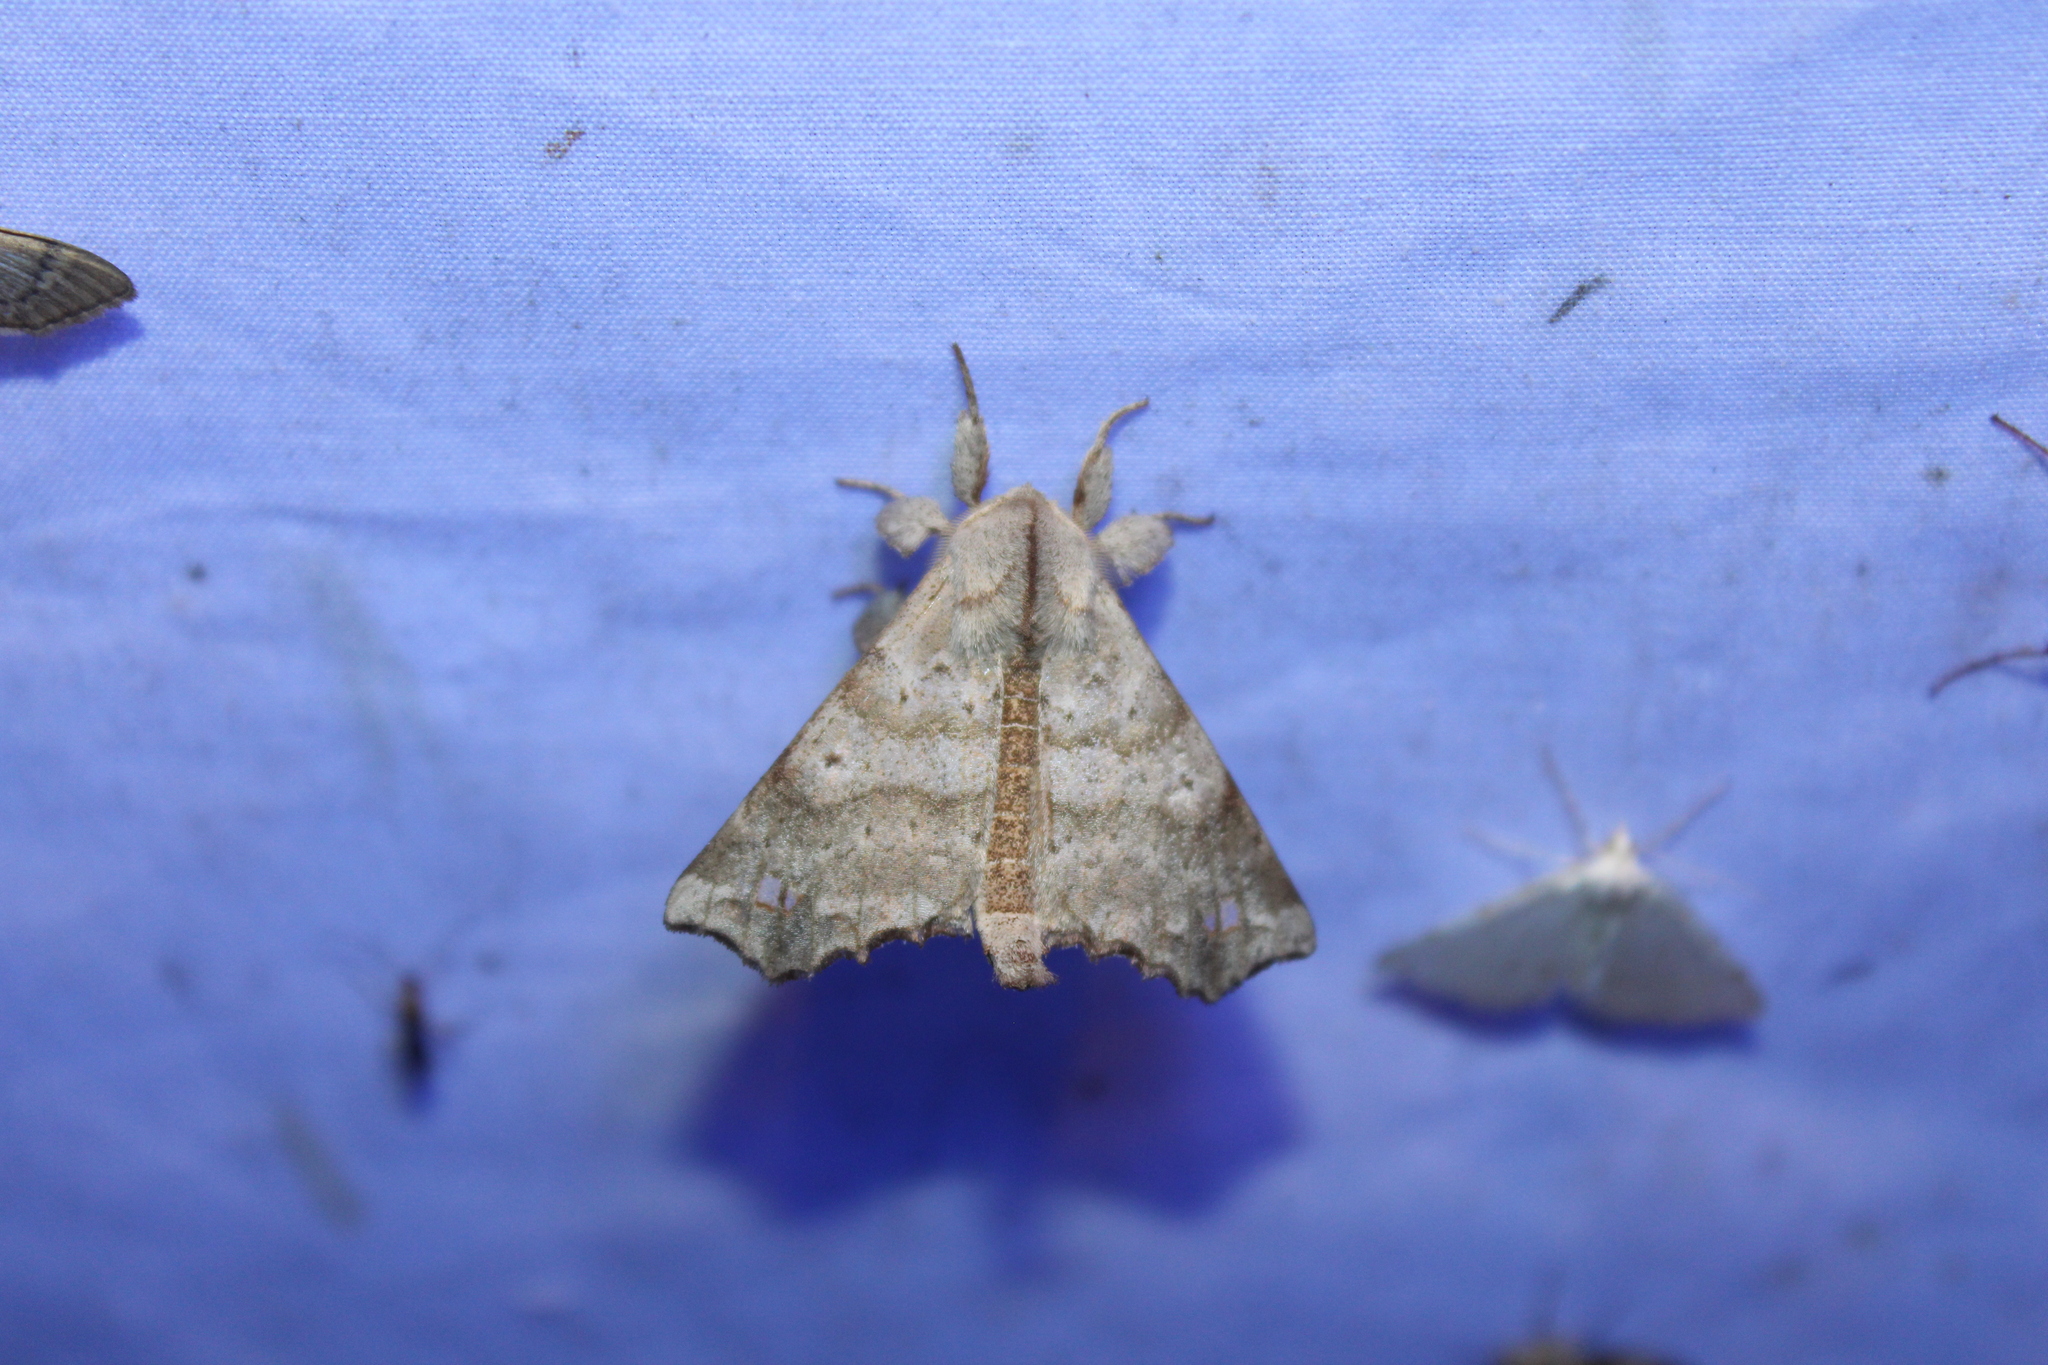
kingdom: Animalia
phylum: Arthropoda
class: Insecta
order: Lepidoptera
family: Apatelodidae
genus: Olceclostera
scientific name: Olceclostera angelica
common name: Angel moth
